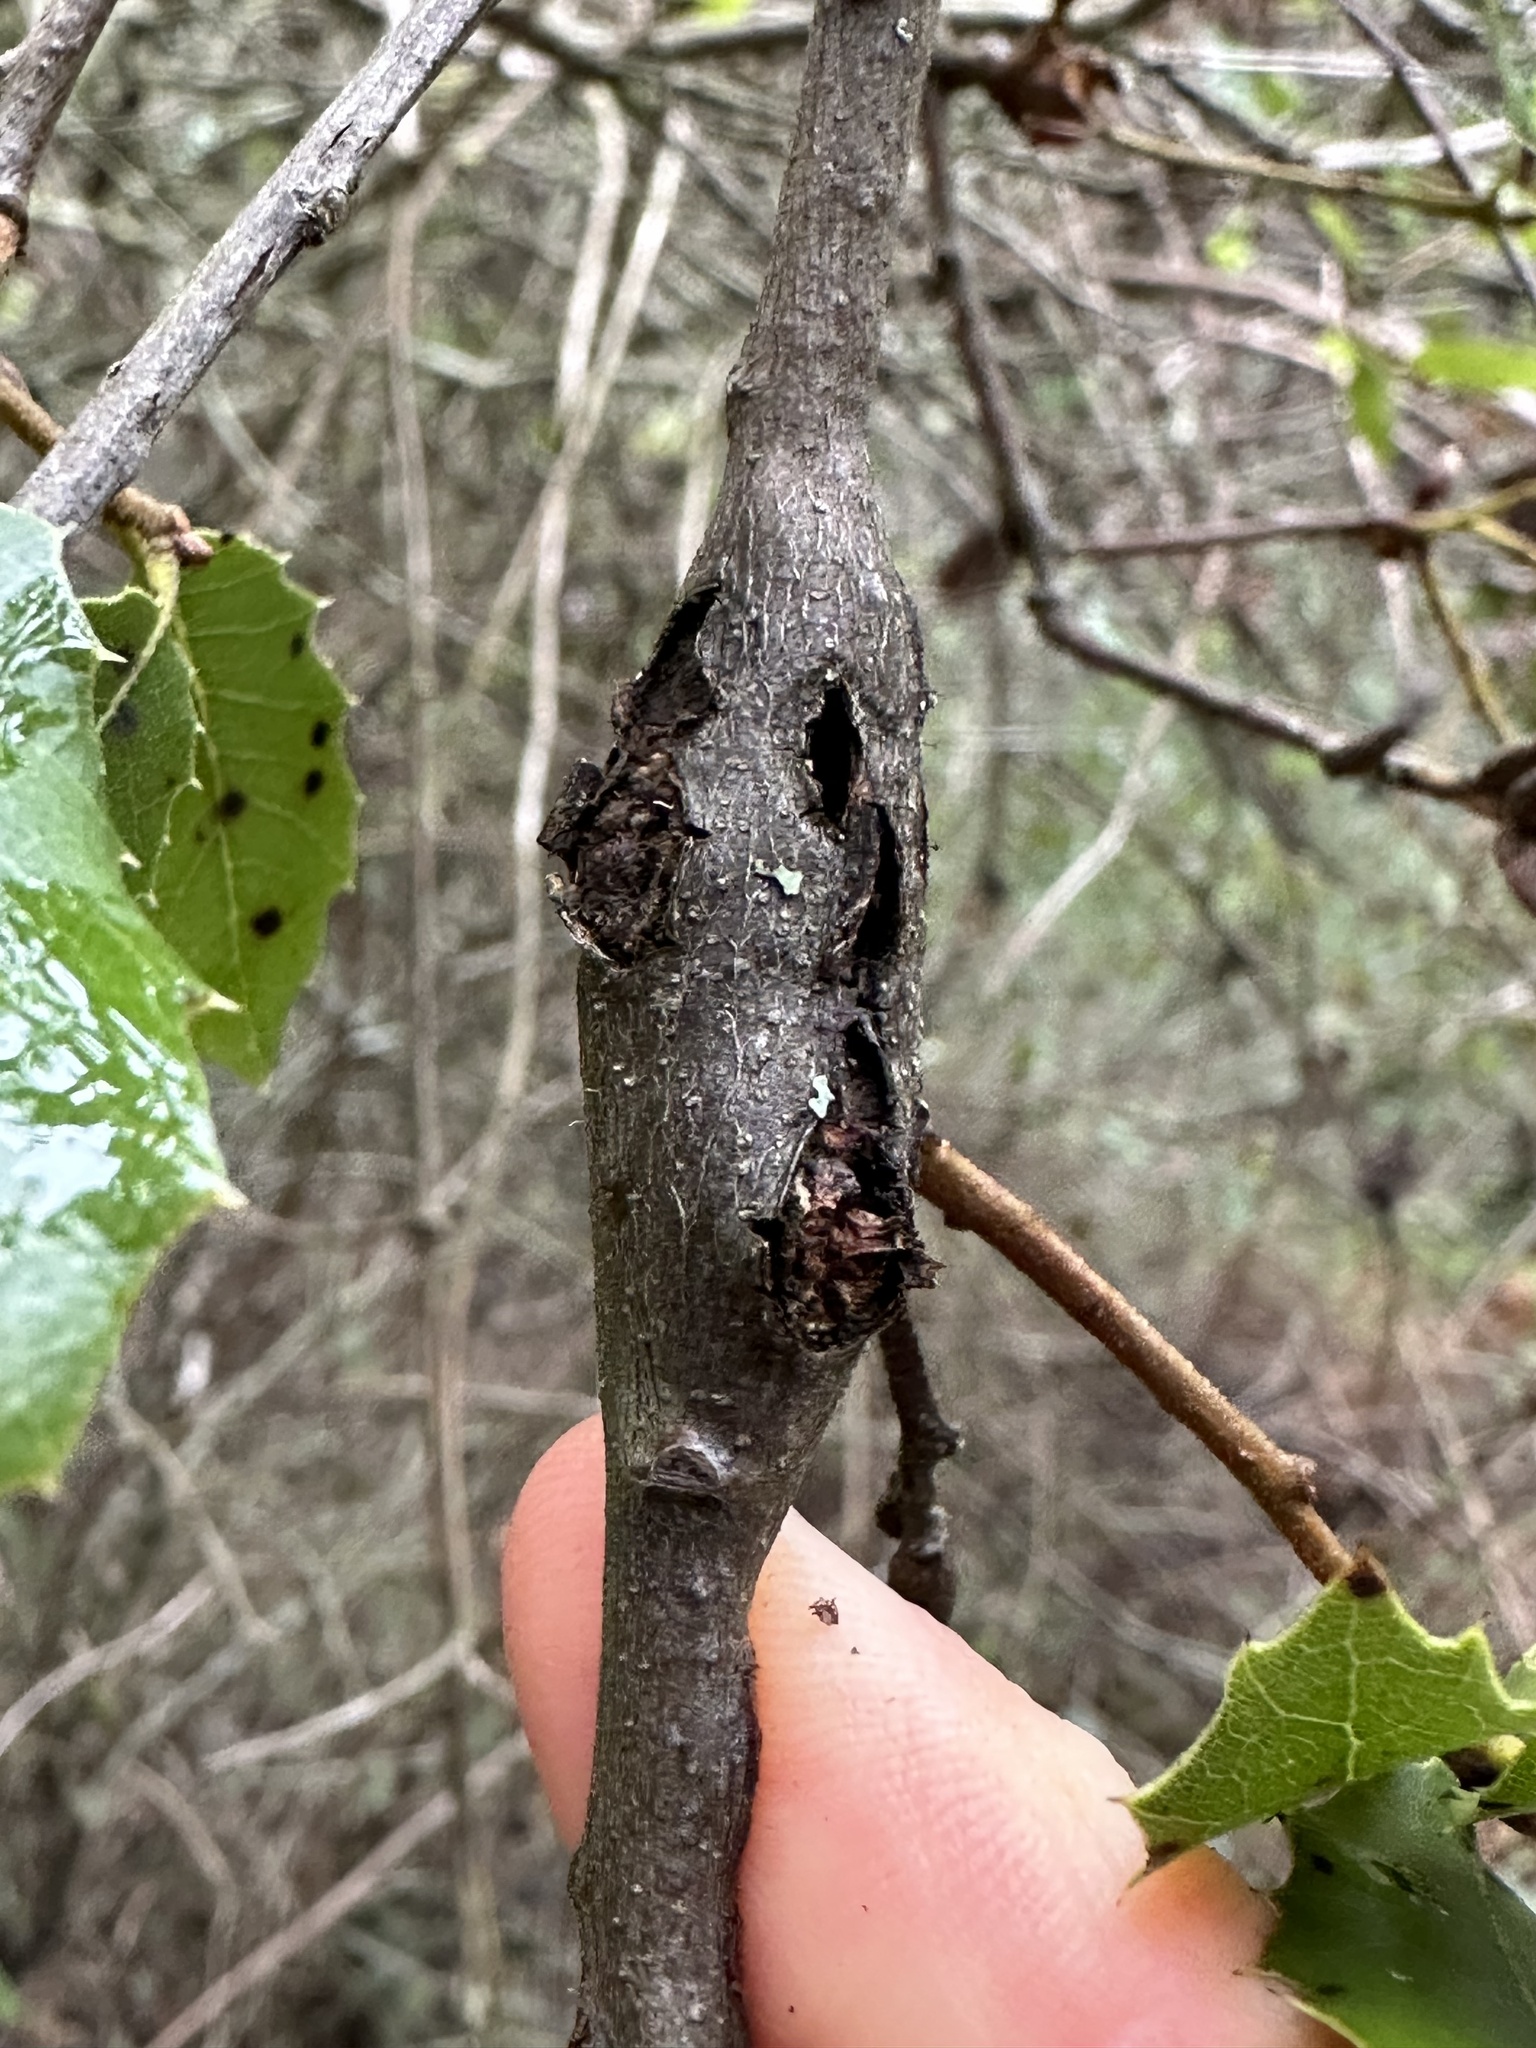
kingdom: Animalia
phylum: Arthropoda
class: Insecta
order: Hymenoptera
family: Cynipidae
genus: Callirhytis
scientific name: Callirhytis
